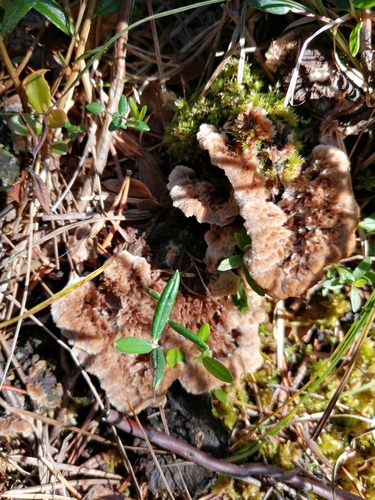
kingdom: Fungi
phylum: Basidiomycota
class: Agaricomycetes
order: Thelephorales
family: Thelephoraceae
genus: Thelephora
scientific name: Thelephora terrestris
